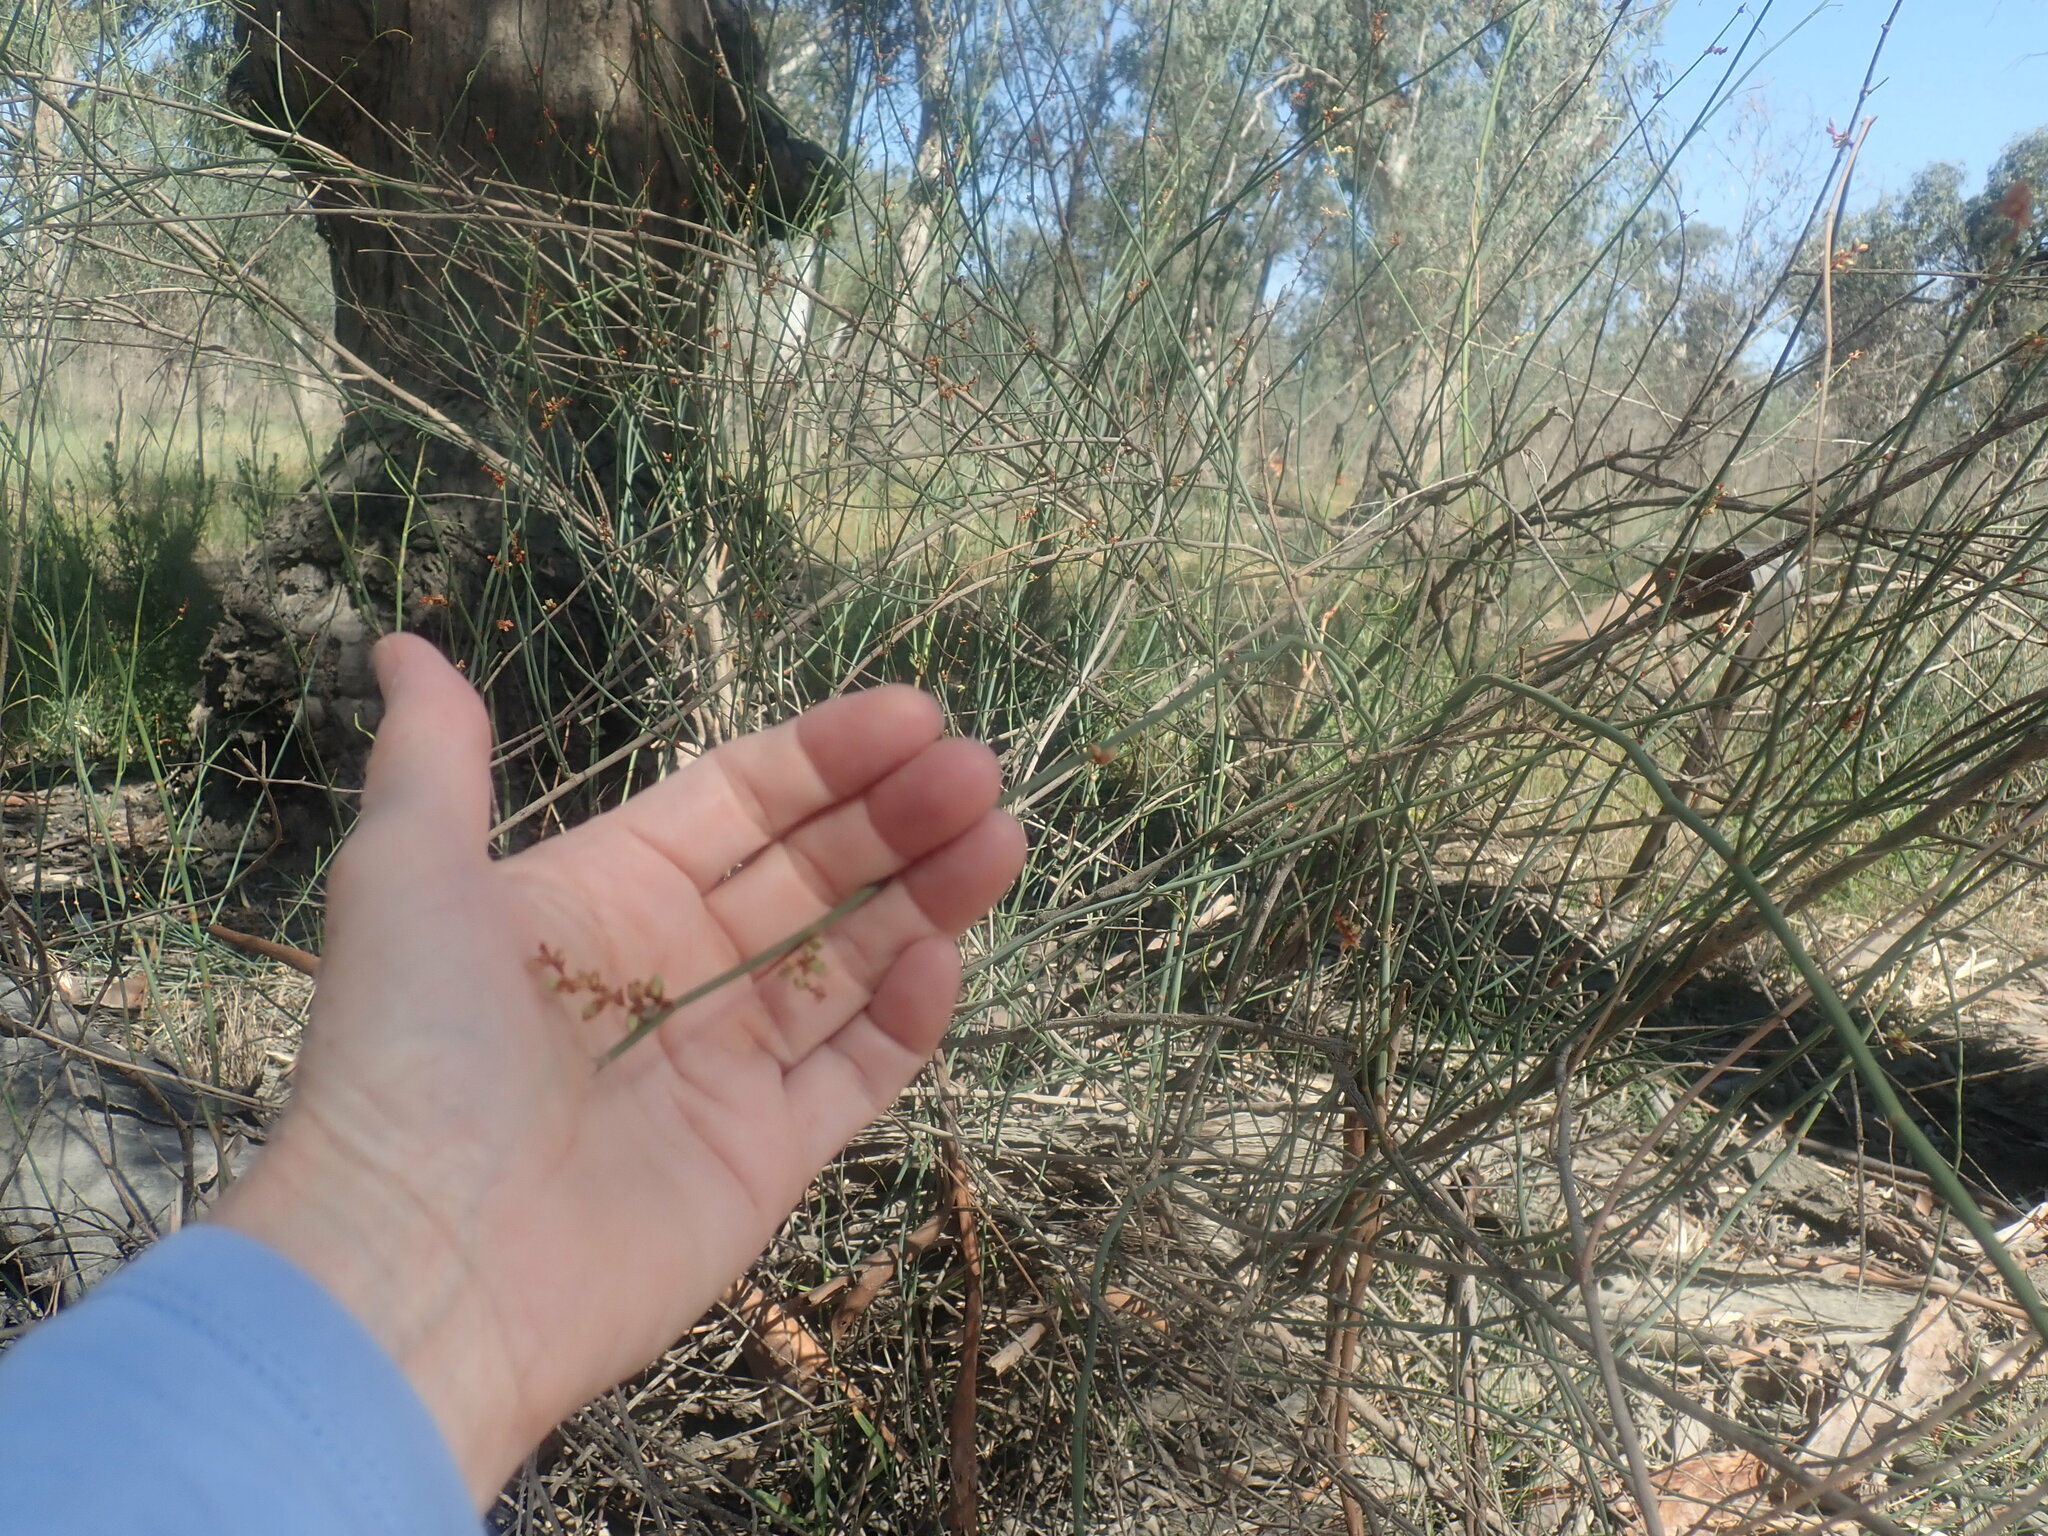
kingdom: Plantae
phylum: Tracheophyta
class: Magnoliopsida
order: Caryophyllales
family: Polygonaceae
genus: Duma
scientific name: Duma florulenta
